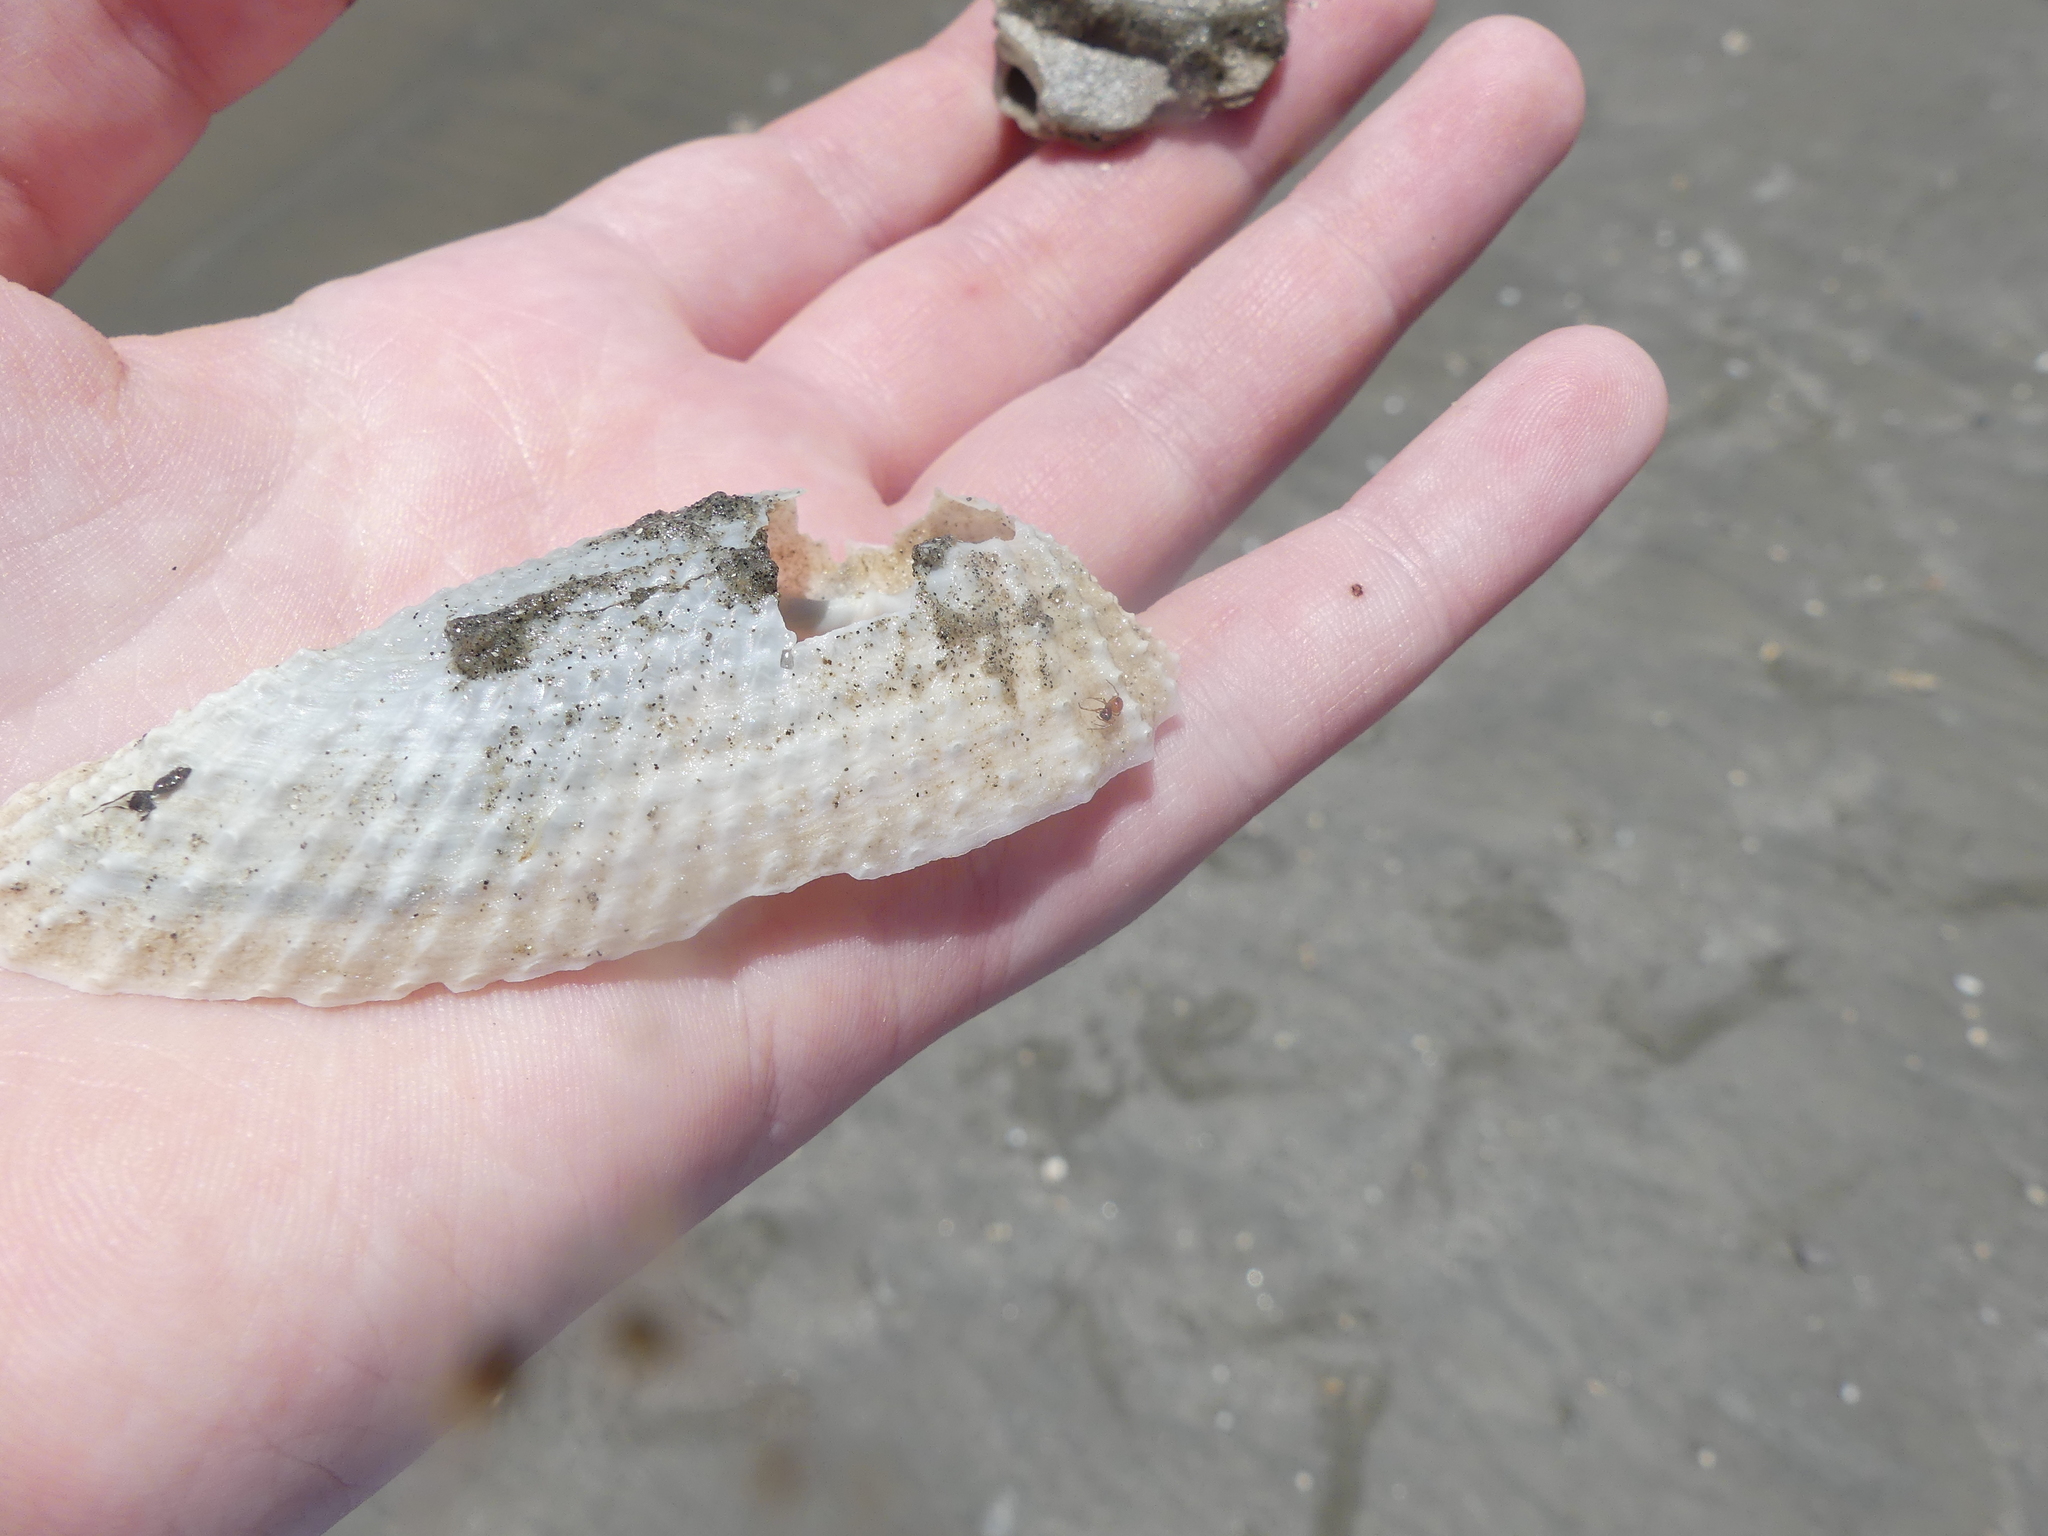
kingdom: Animalia
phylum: Mollusca
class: Bivalvia
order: Myida
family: Pholadidae
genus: Cyrtopleura
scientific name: Cyrtopleura costata
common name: Angel wing
